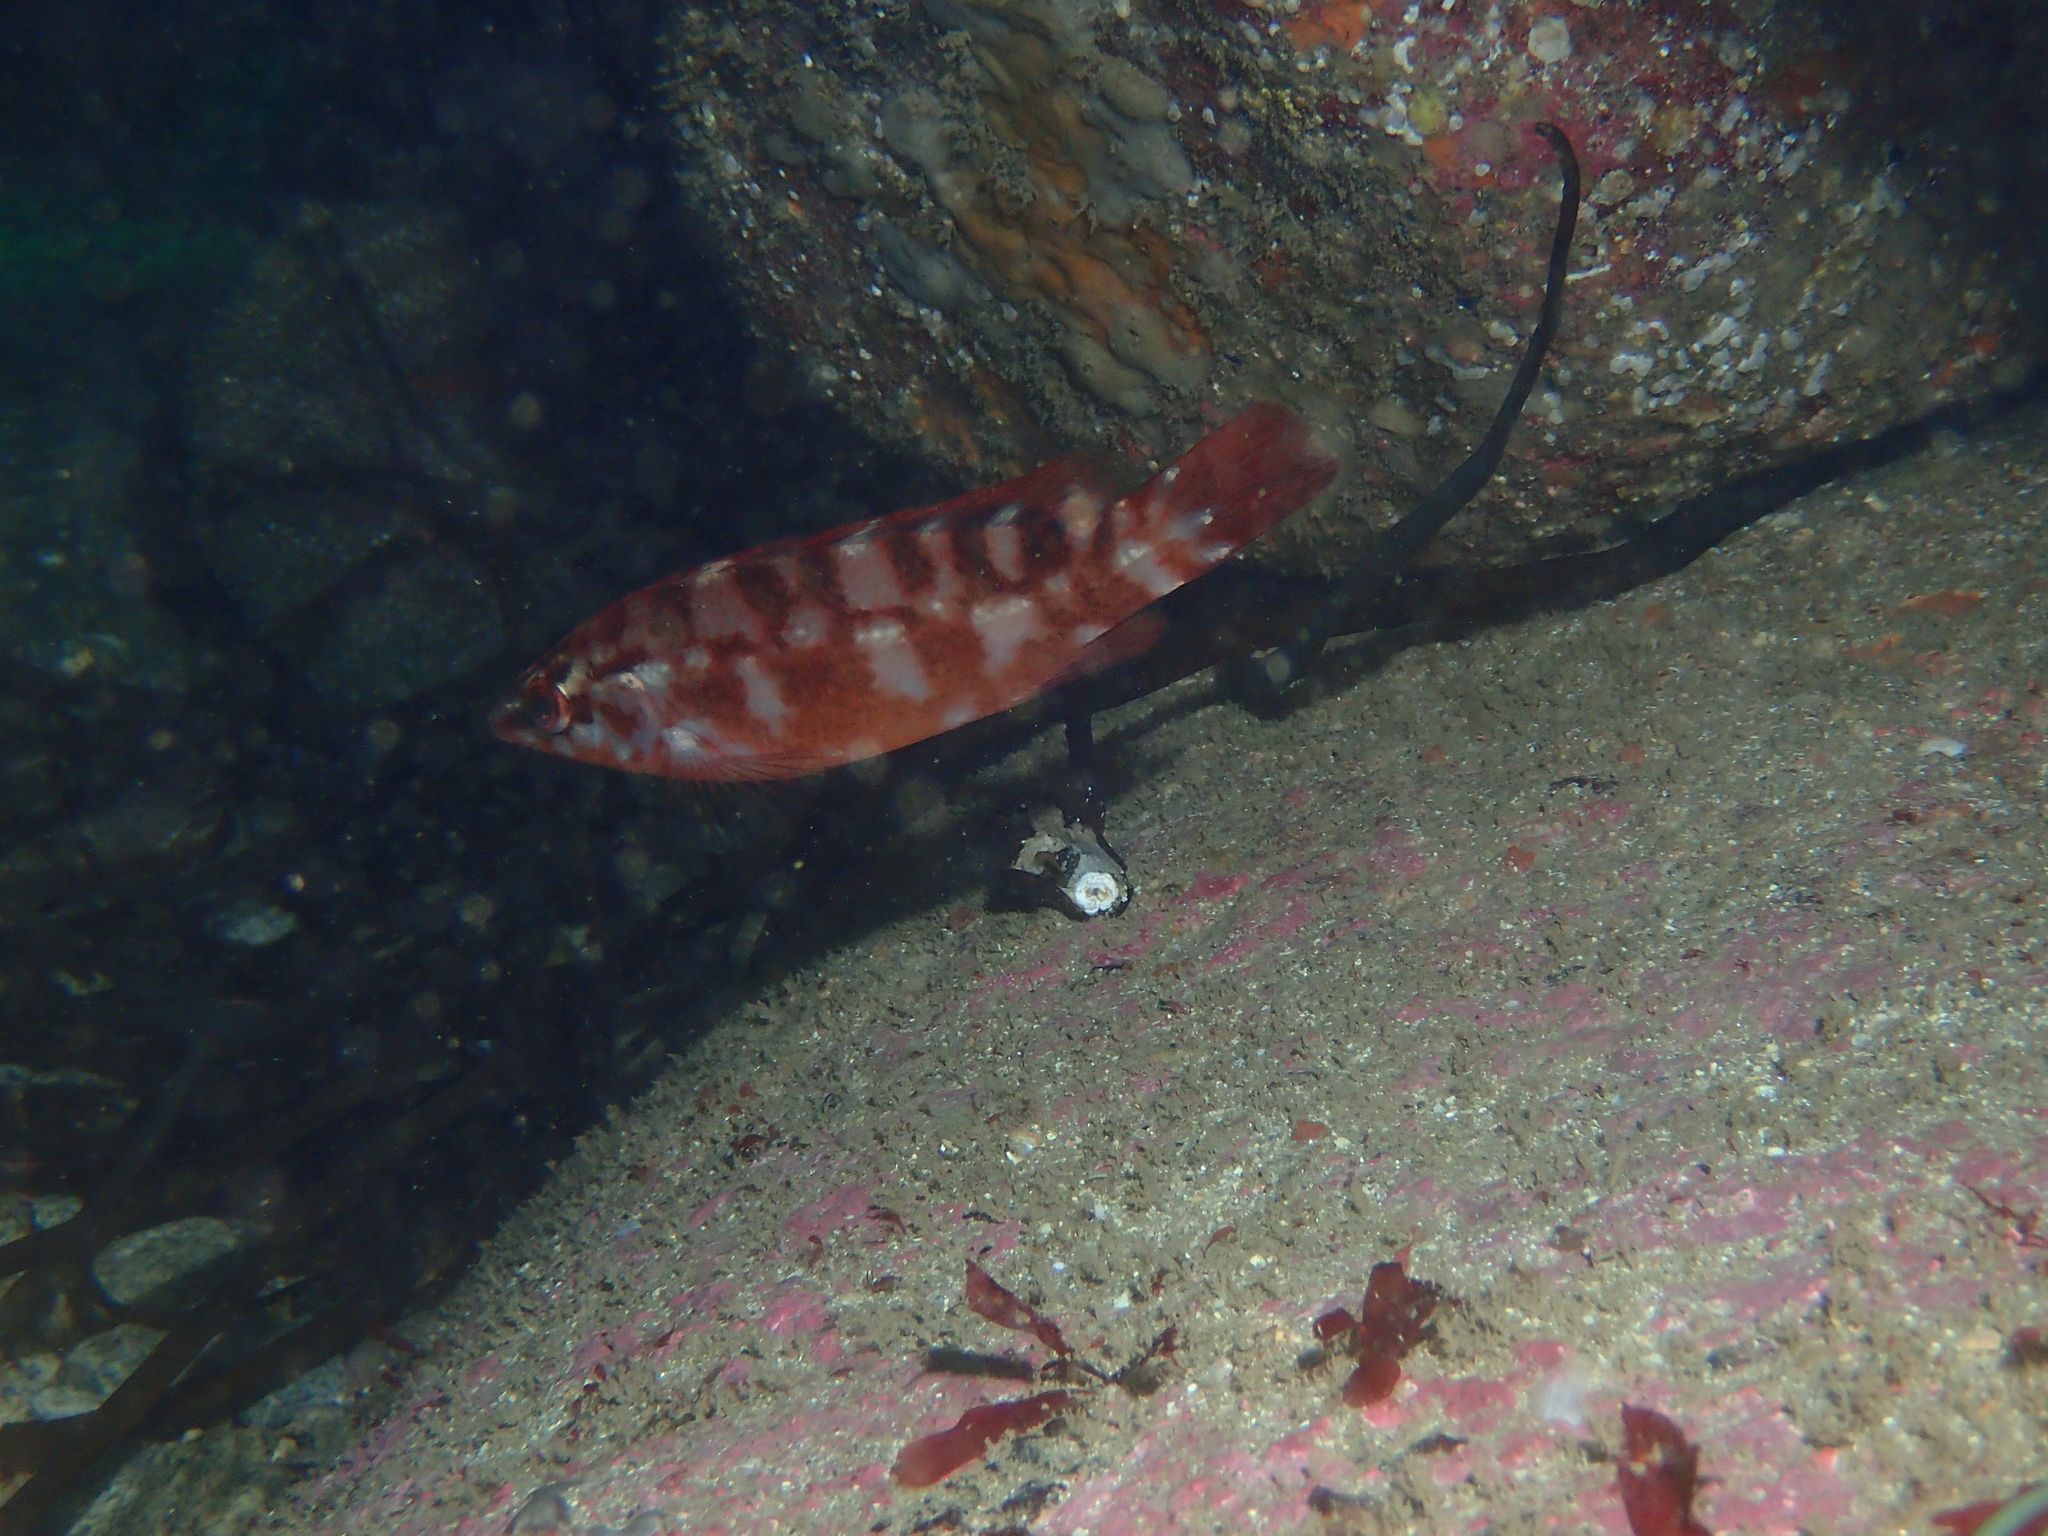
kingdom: Animalia
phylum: Chordata
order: Perciformes
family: Labridae
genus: Labrus
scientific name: Labrus bergylta
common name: Ballan wrasse
